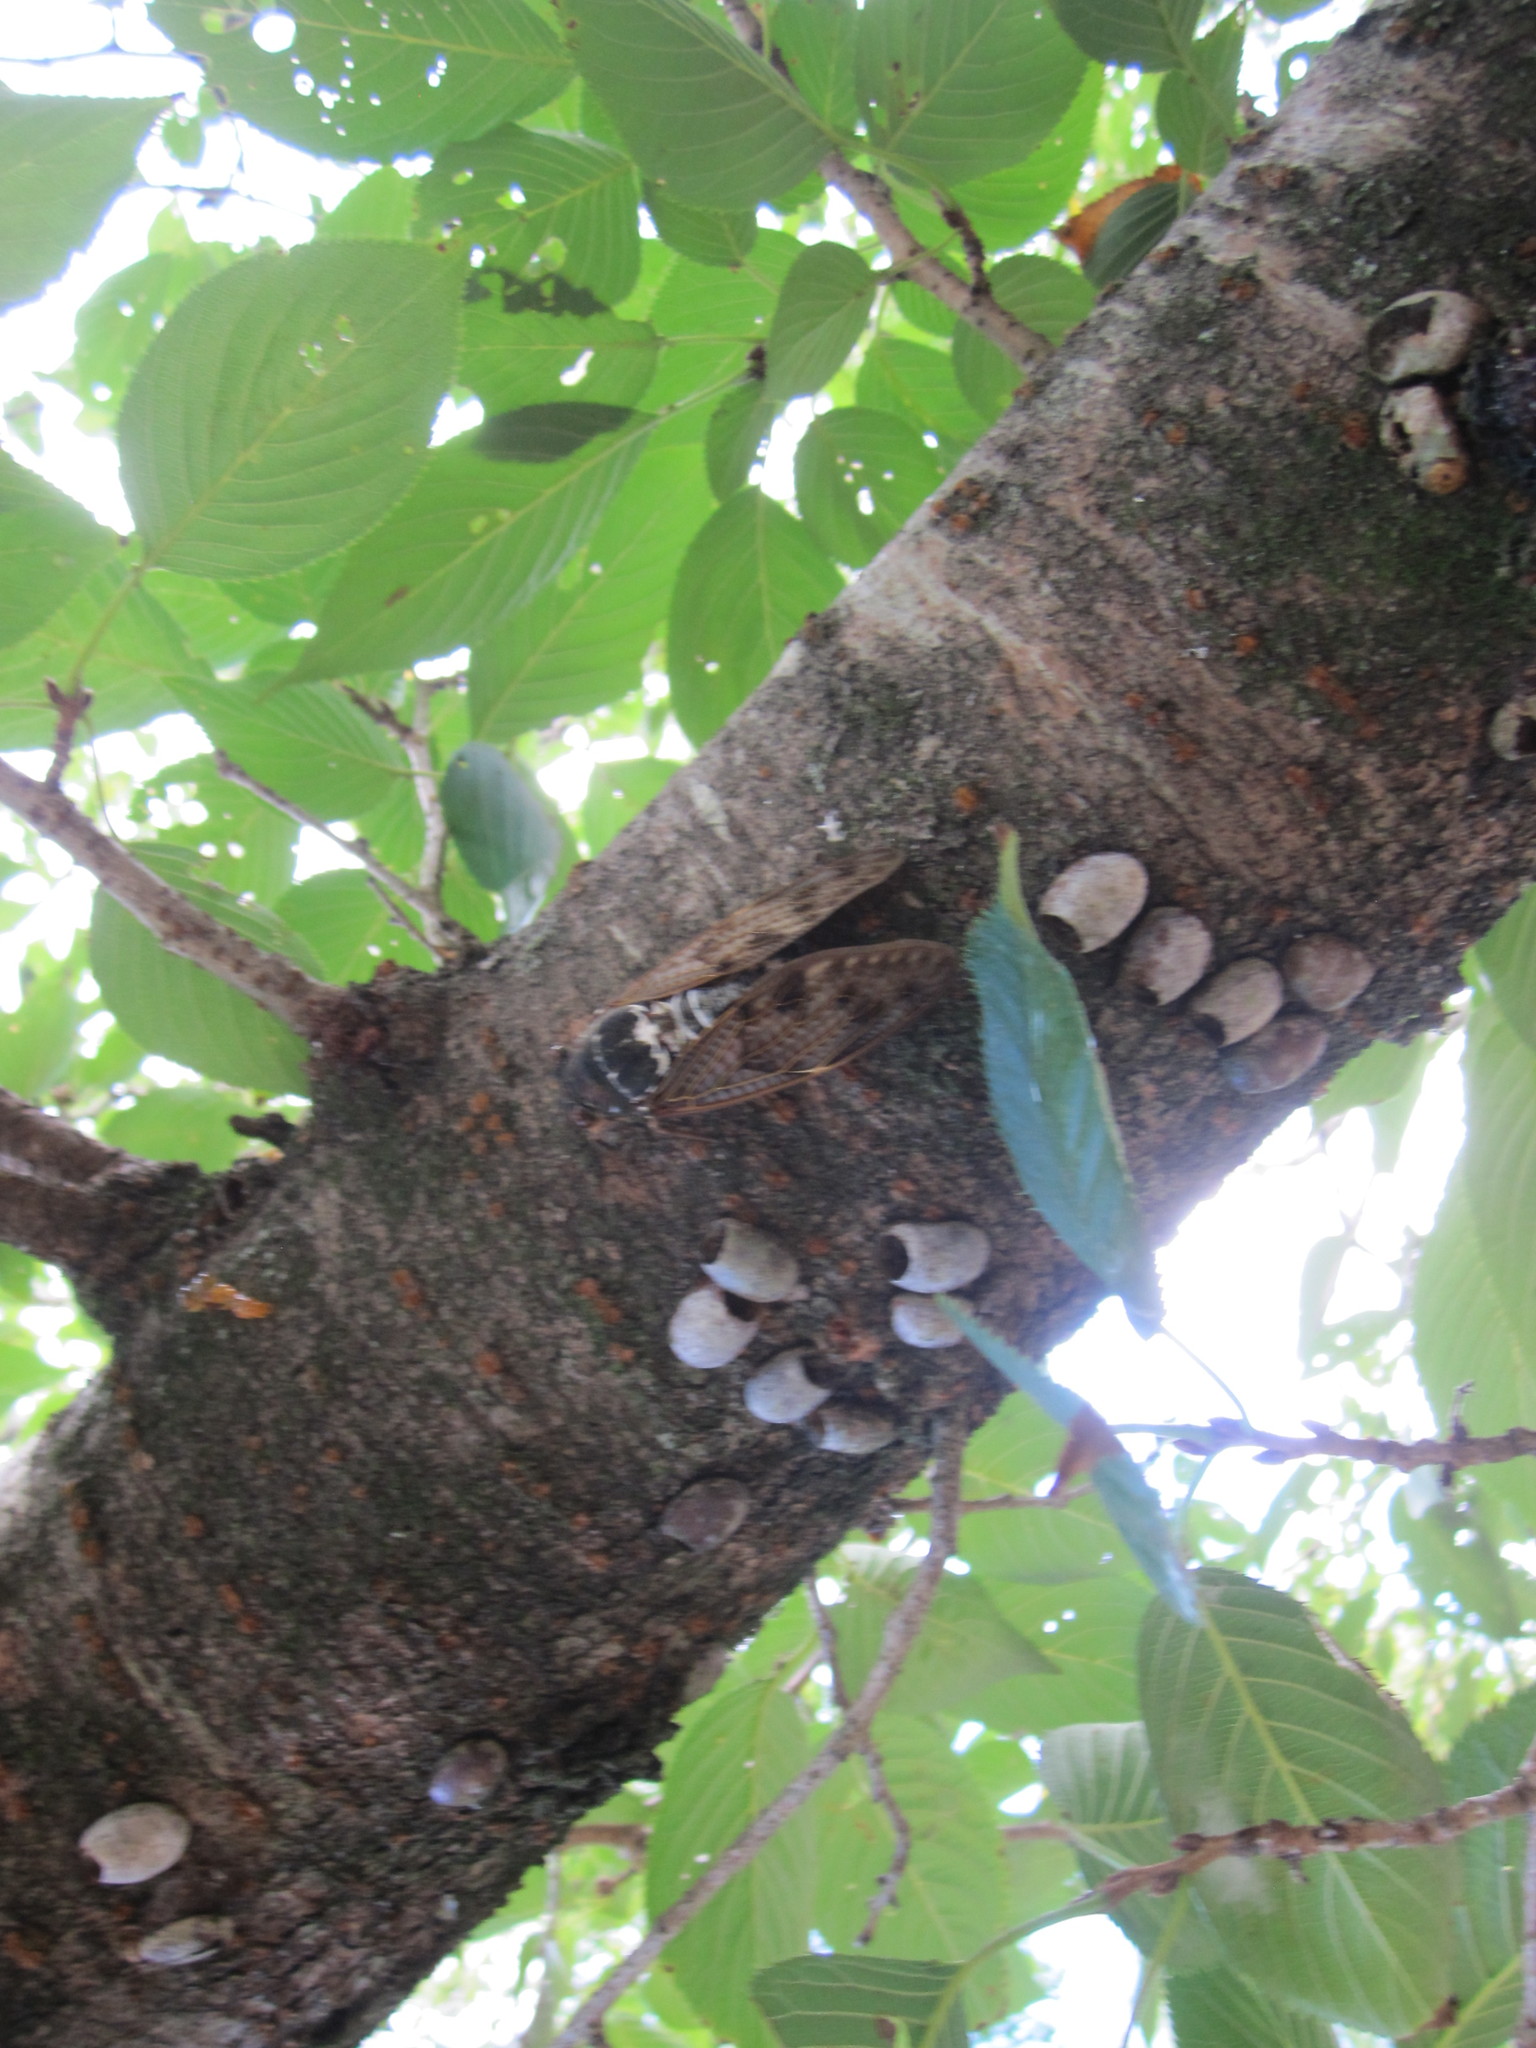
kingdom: Animalia
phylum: Arthropoda
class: Insecta
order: Hemiptera
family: Cicadidae
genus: Graptopsaltria
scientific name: Graptopsaltria nigrofuscata
